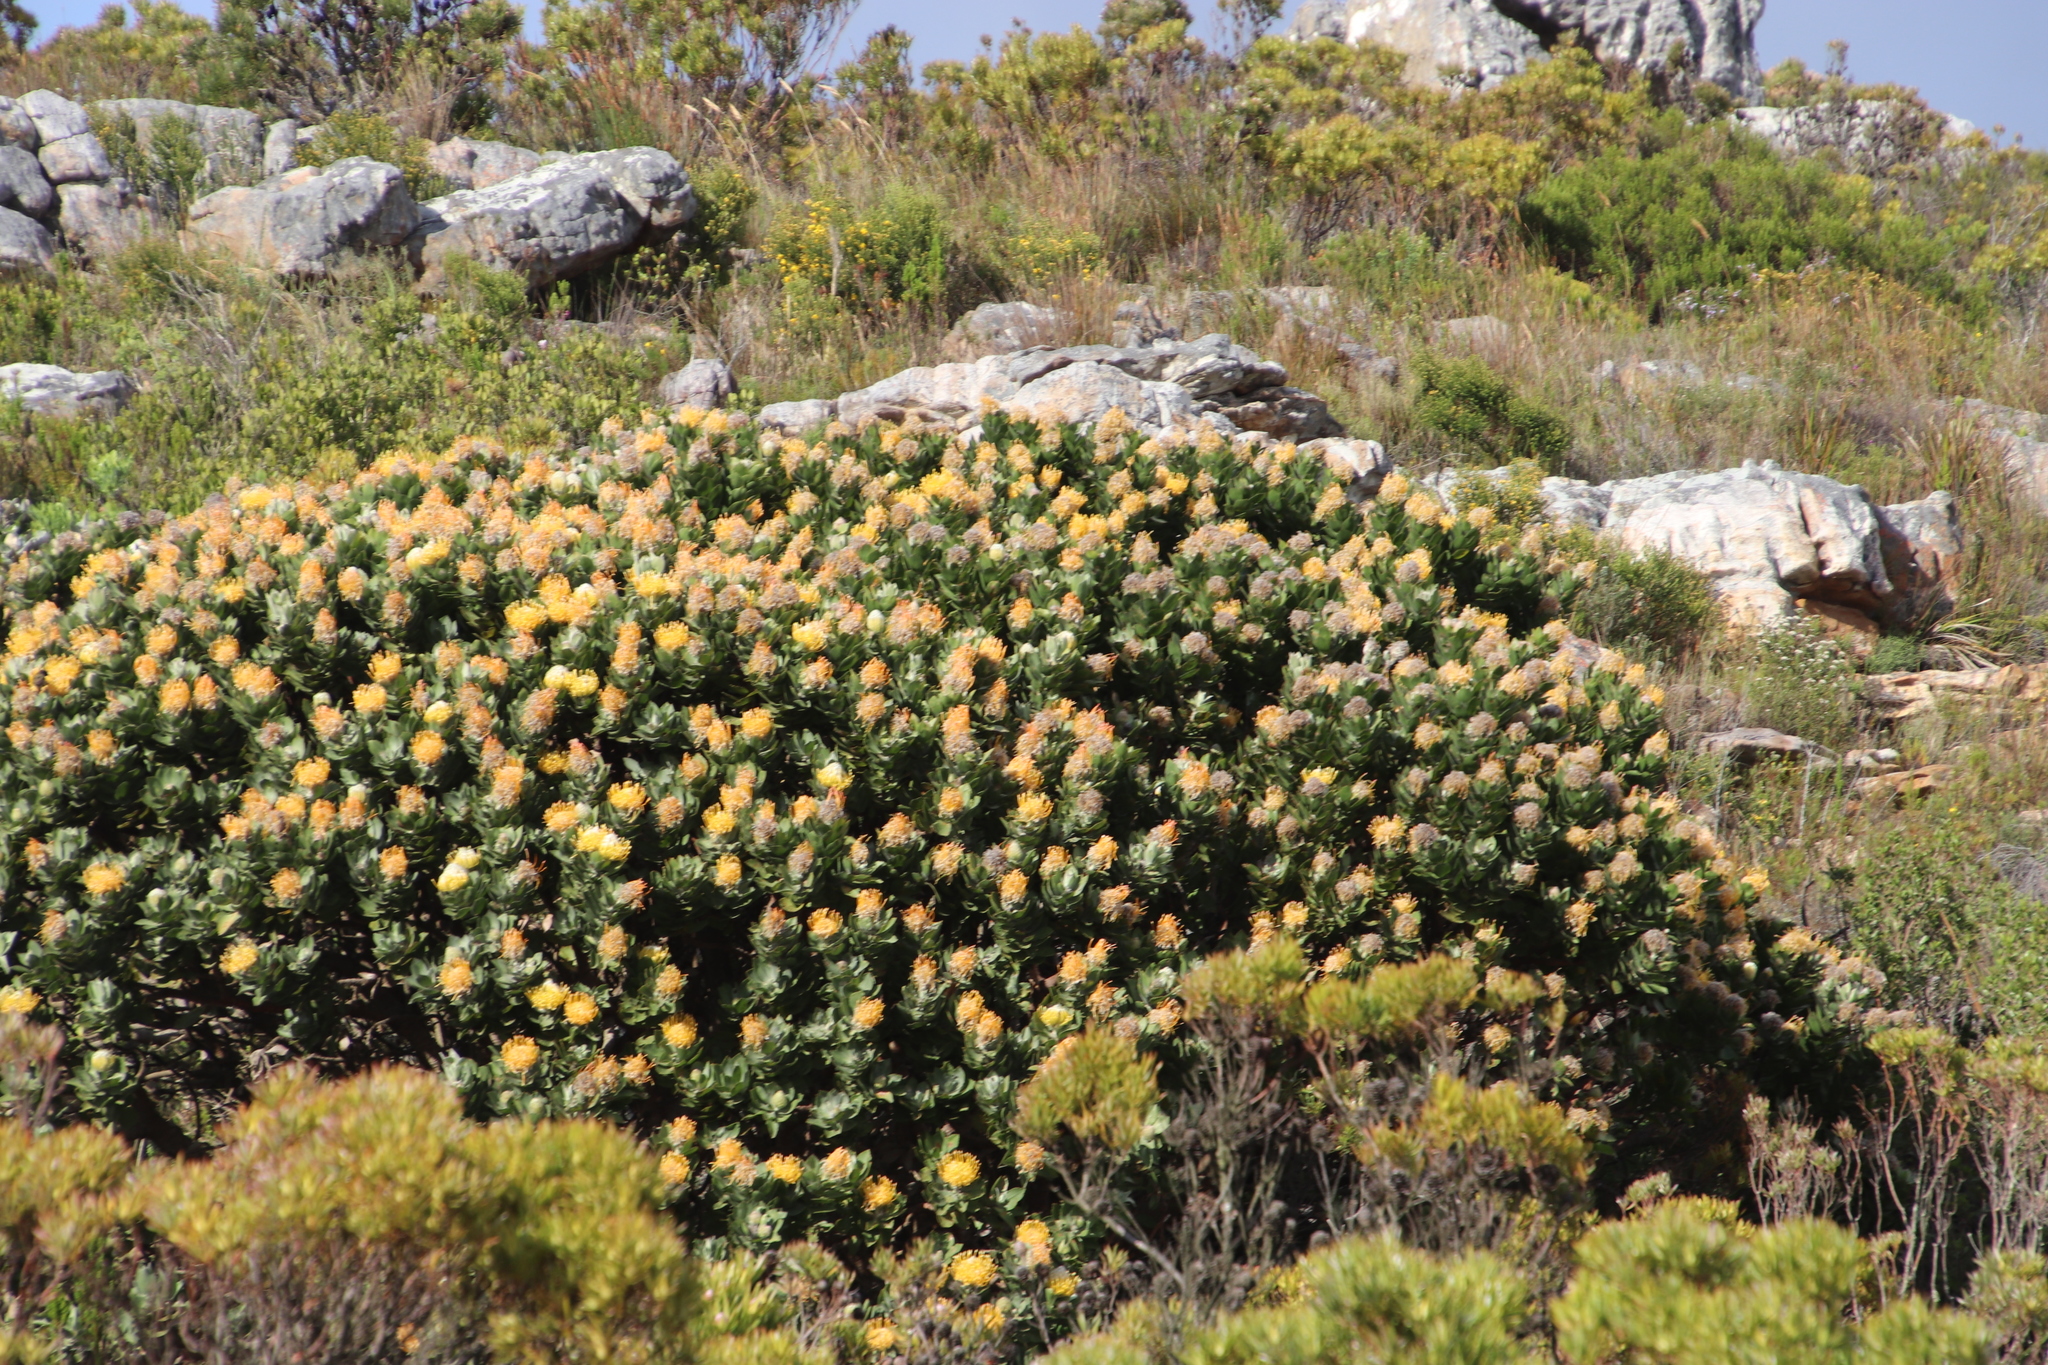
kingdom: Plantae
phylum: Tracheophyta
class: Magnoliopsida
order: Proteales
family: Proteaceae
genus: Leucospermum
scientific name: Leucospermum conocarpodendron
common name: Tree pincushion
